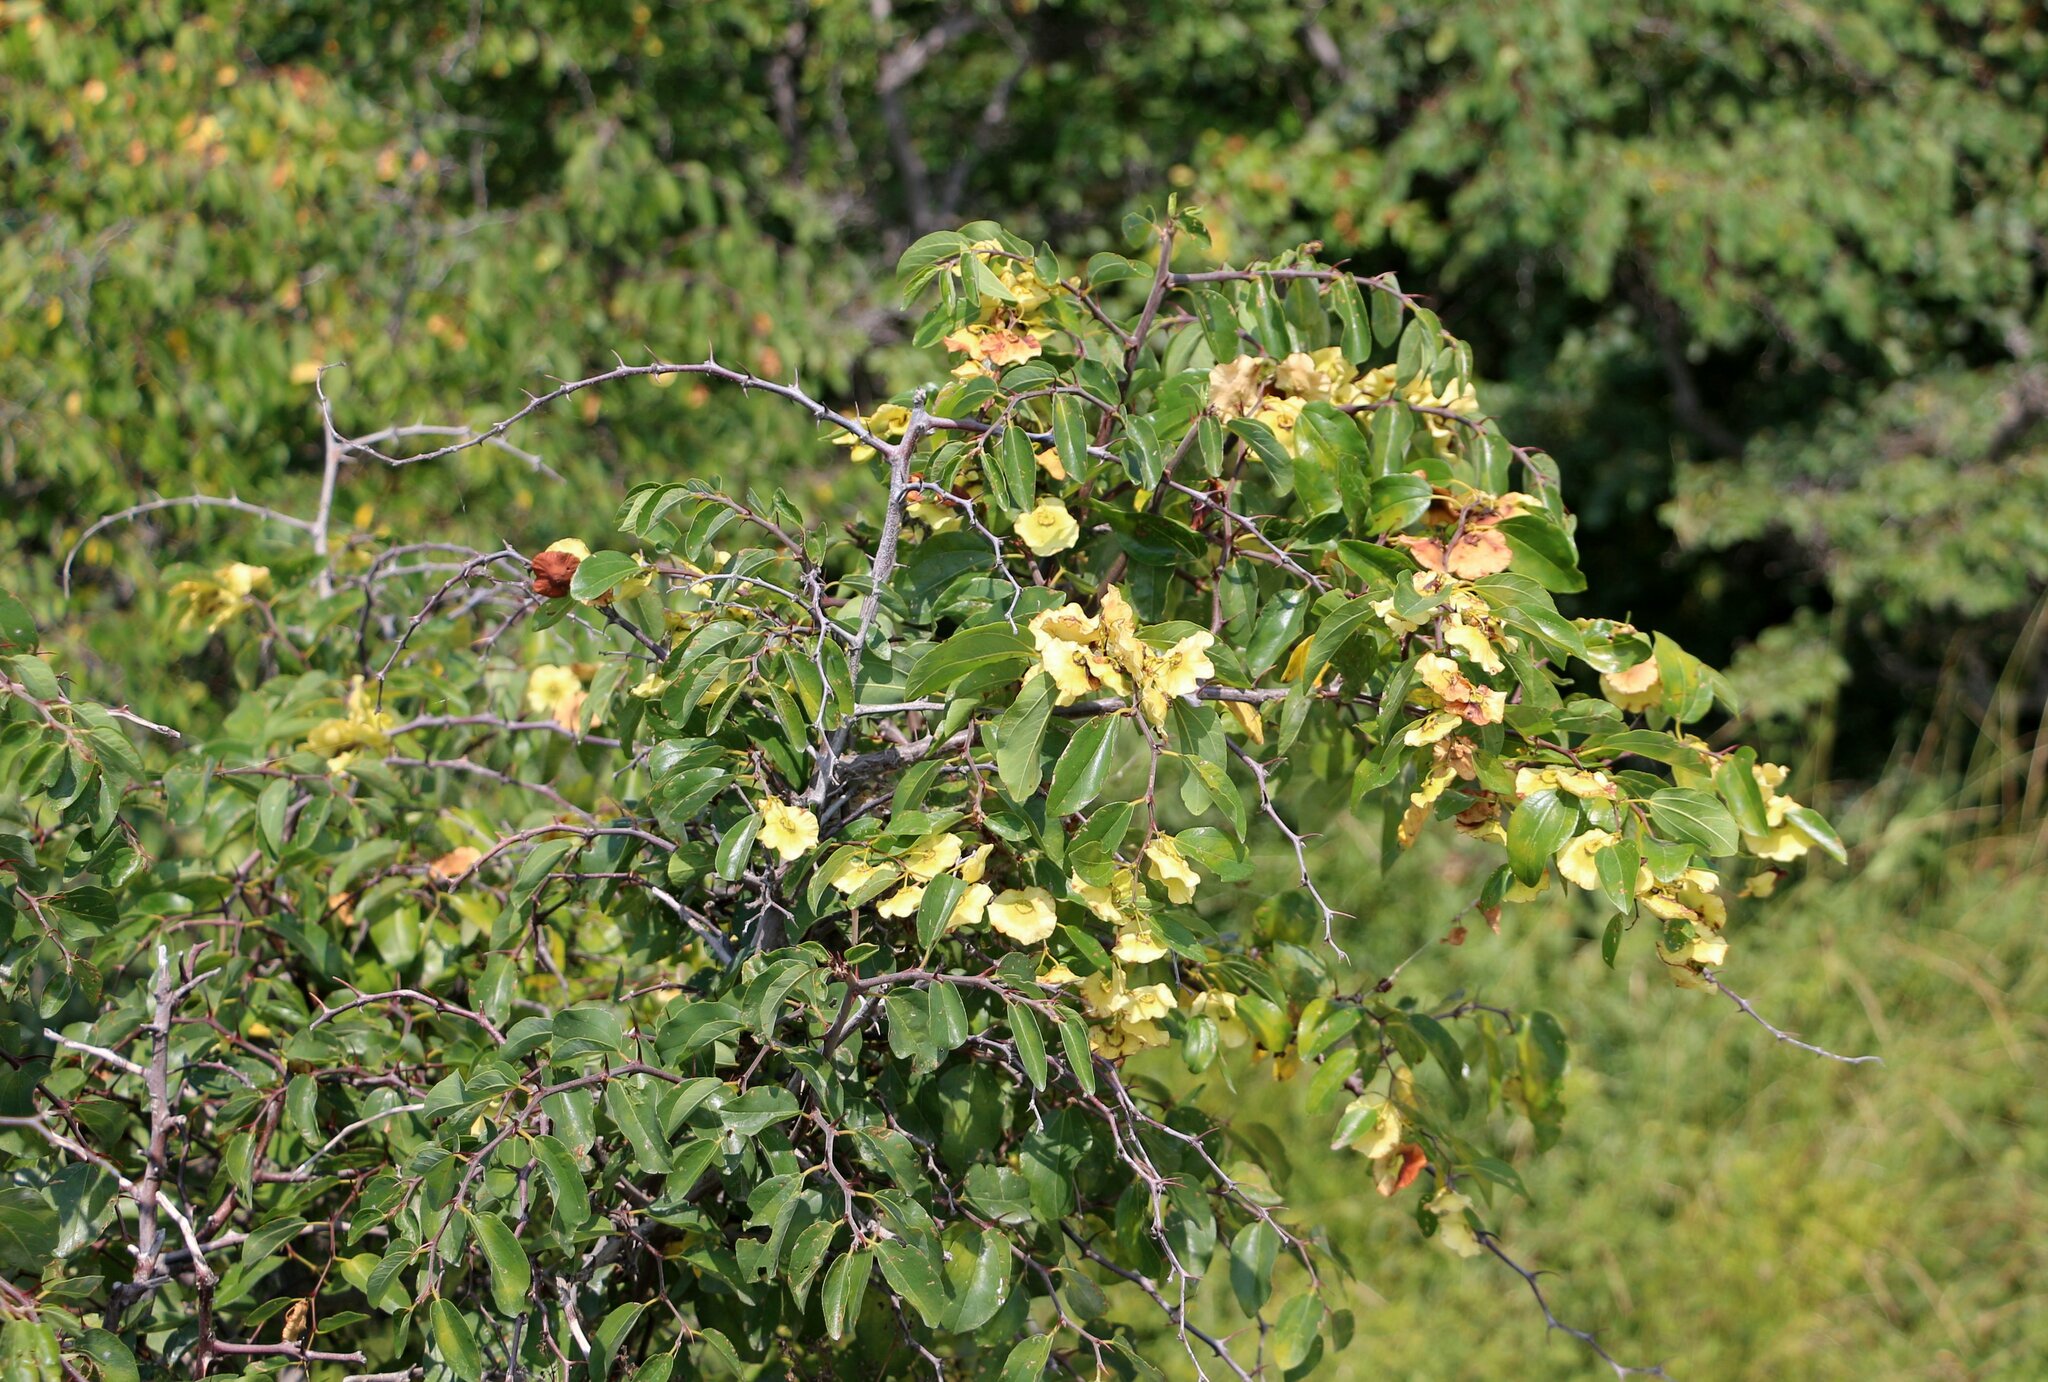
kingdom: Plantae
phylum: Tracheophyta
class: Magnoliopsida
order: Rosales
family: Rhamnaceae
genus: Paliurus
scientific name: Paliurus spina-christi
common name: Jeruselem thorn
